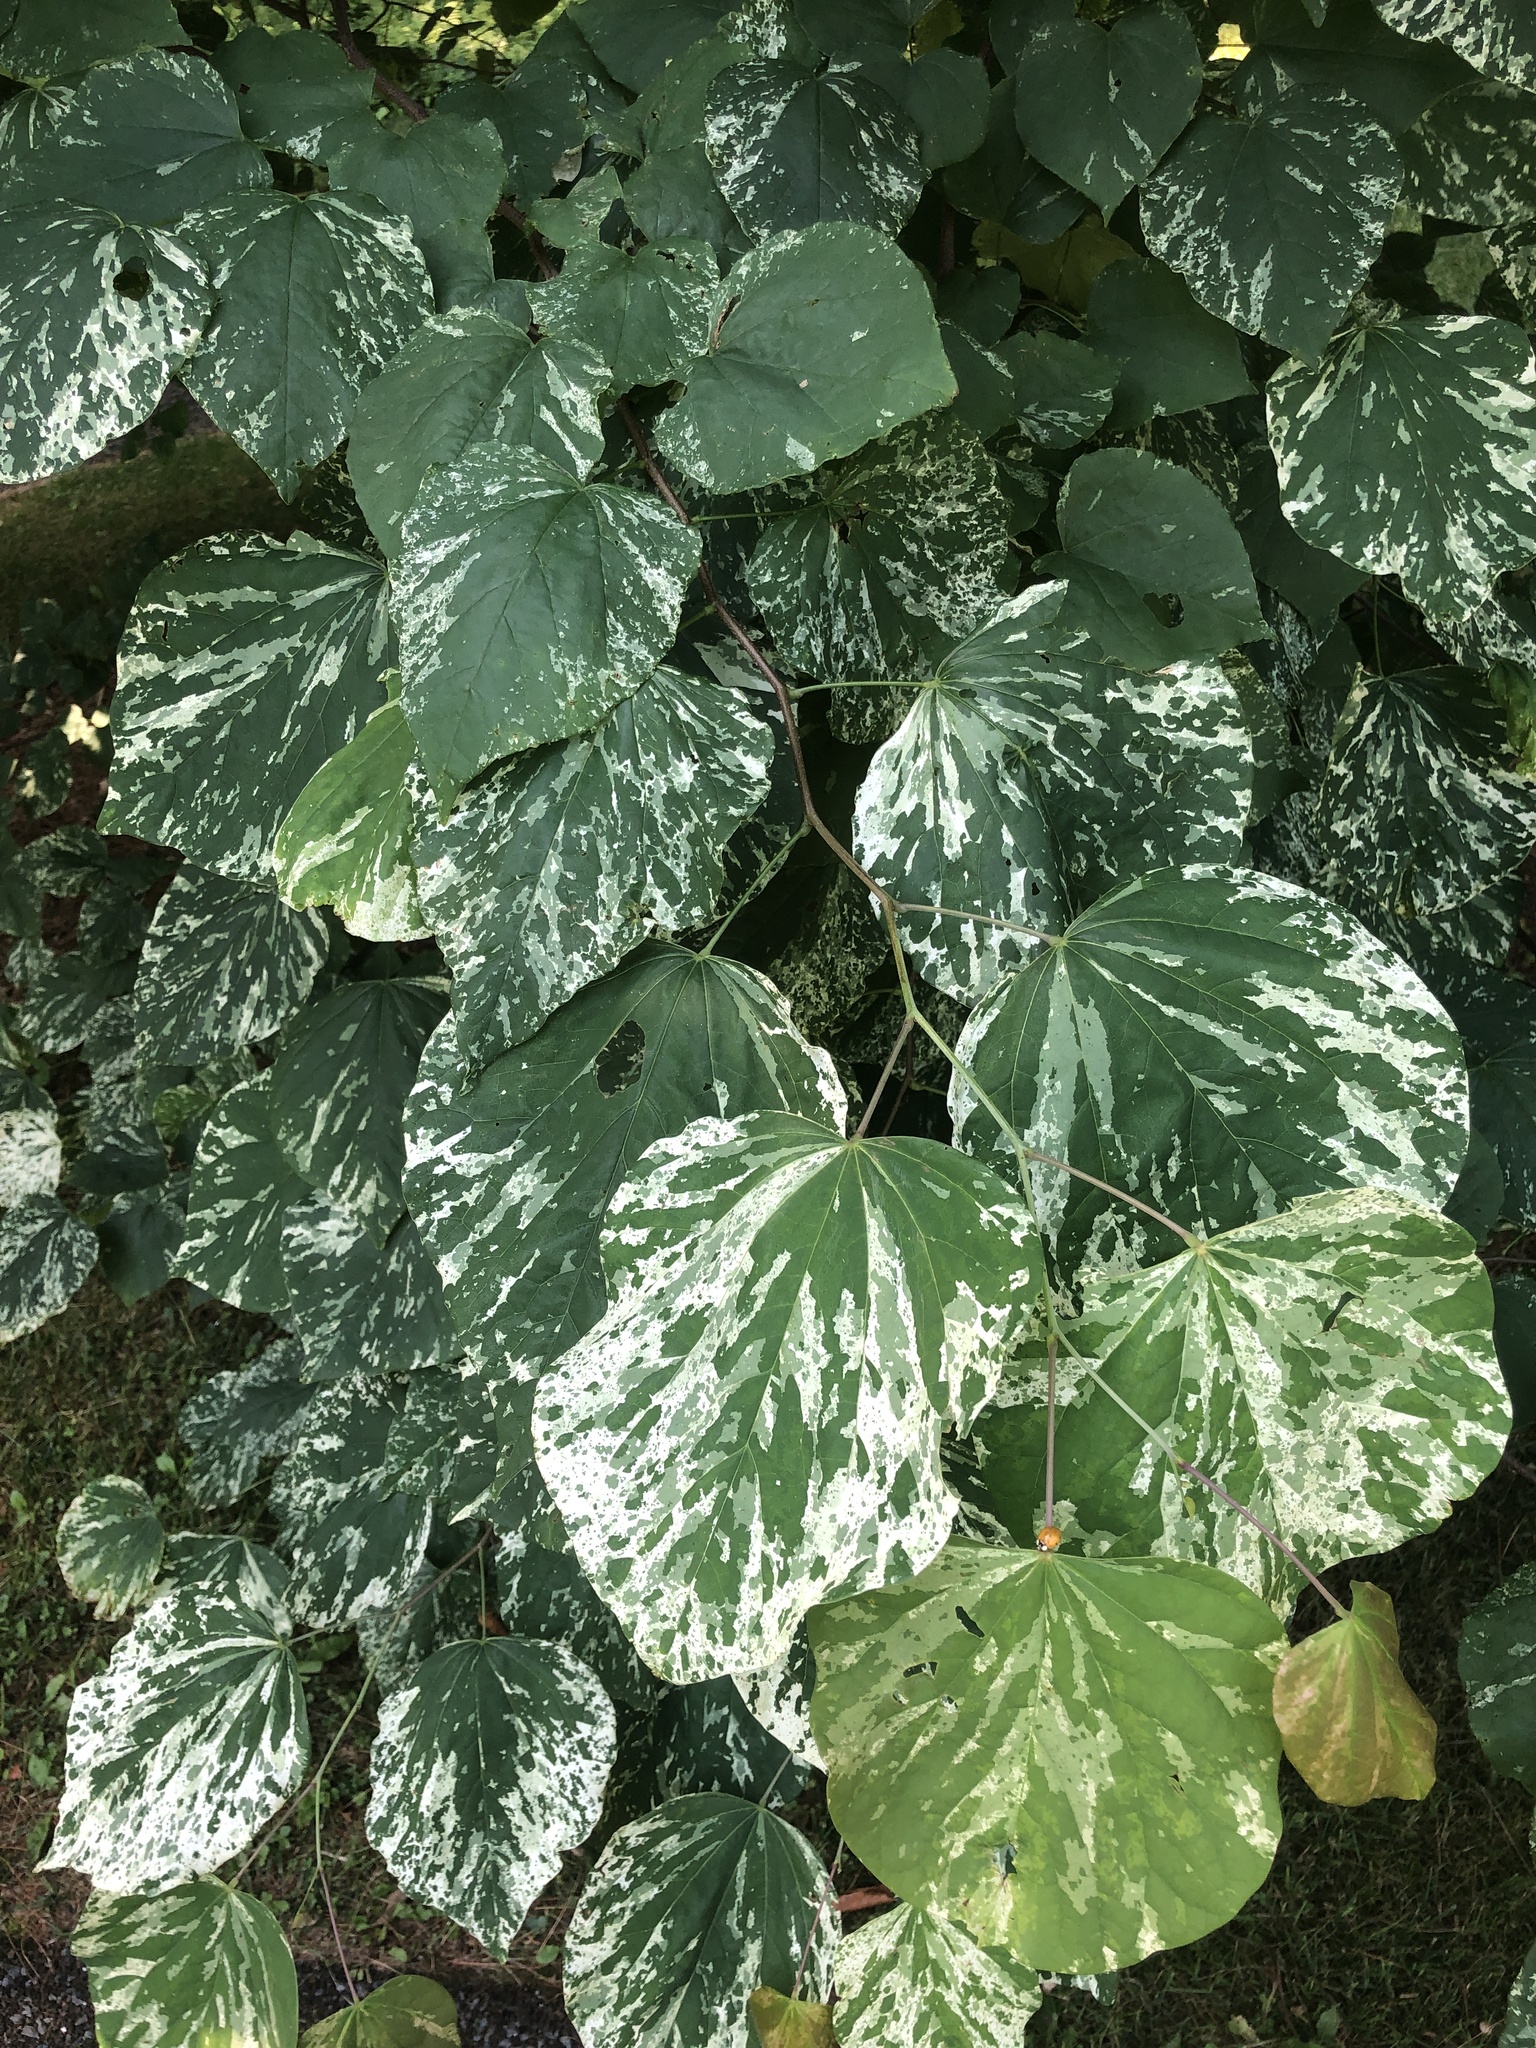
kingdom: Plantae
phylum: Tracheophyta
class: Magnoliopsida
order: Fabales
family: Fabaceae
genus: Cercis
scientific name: Cercis canadensis
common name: Eastern redbud
